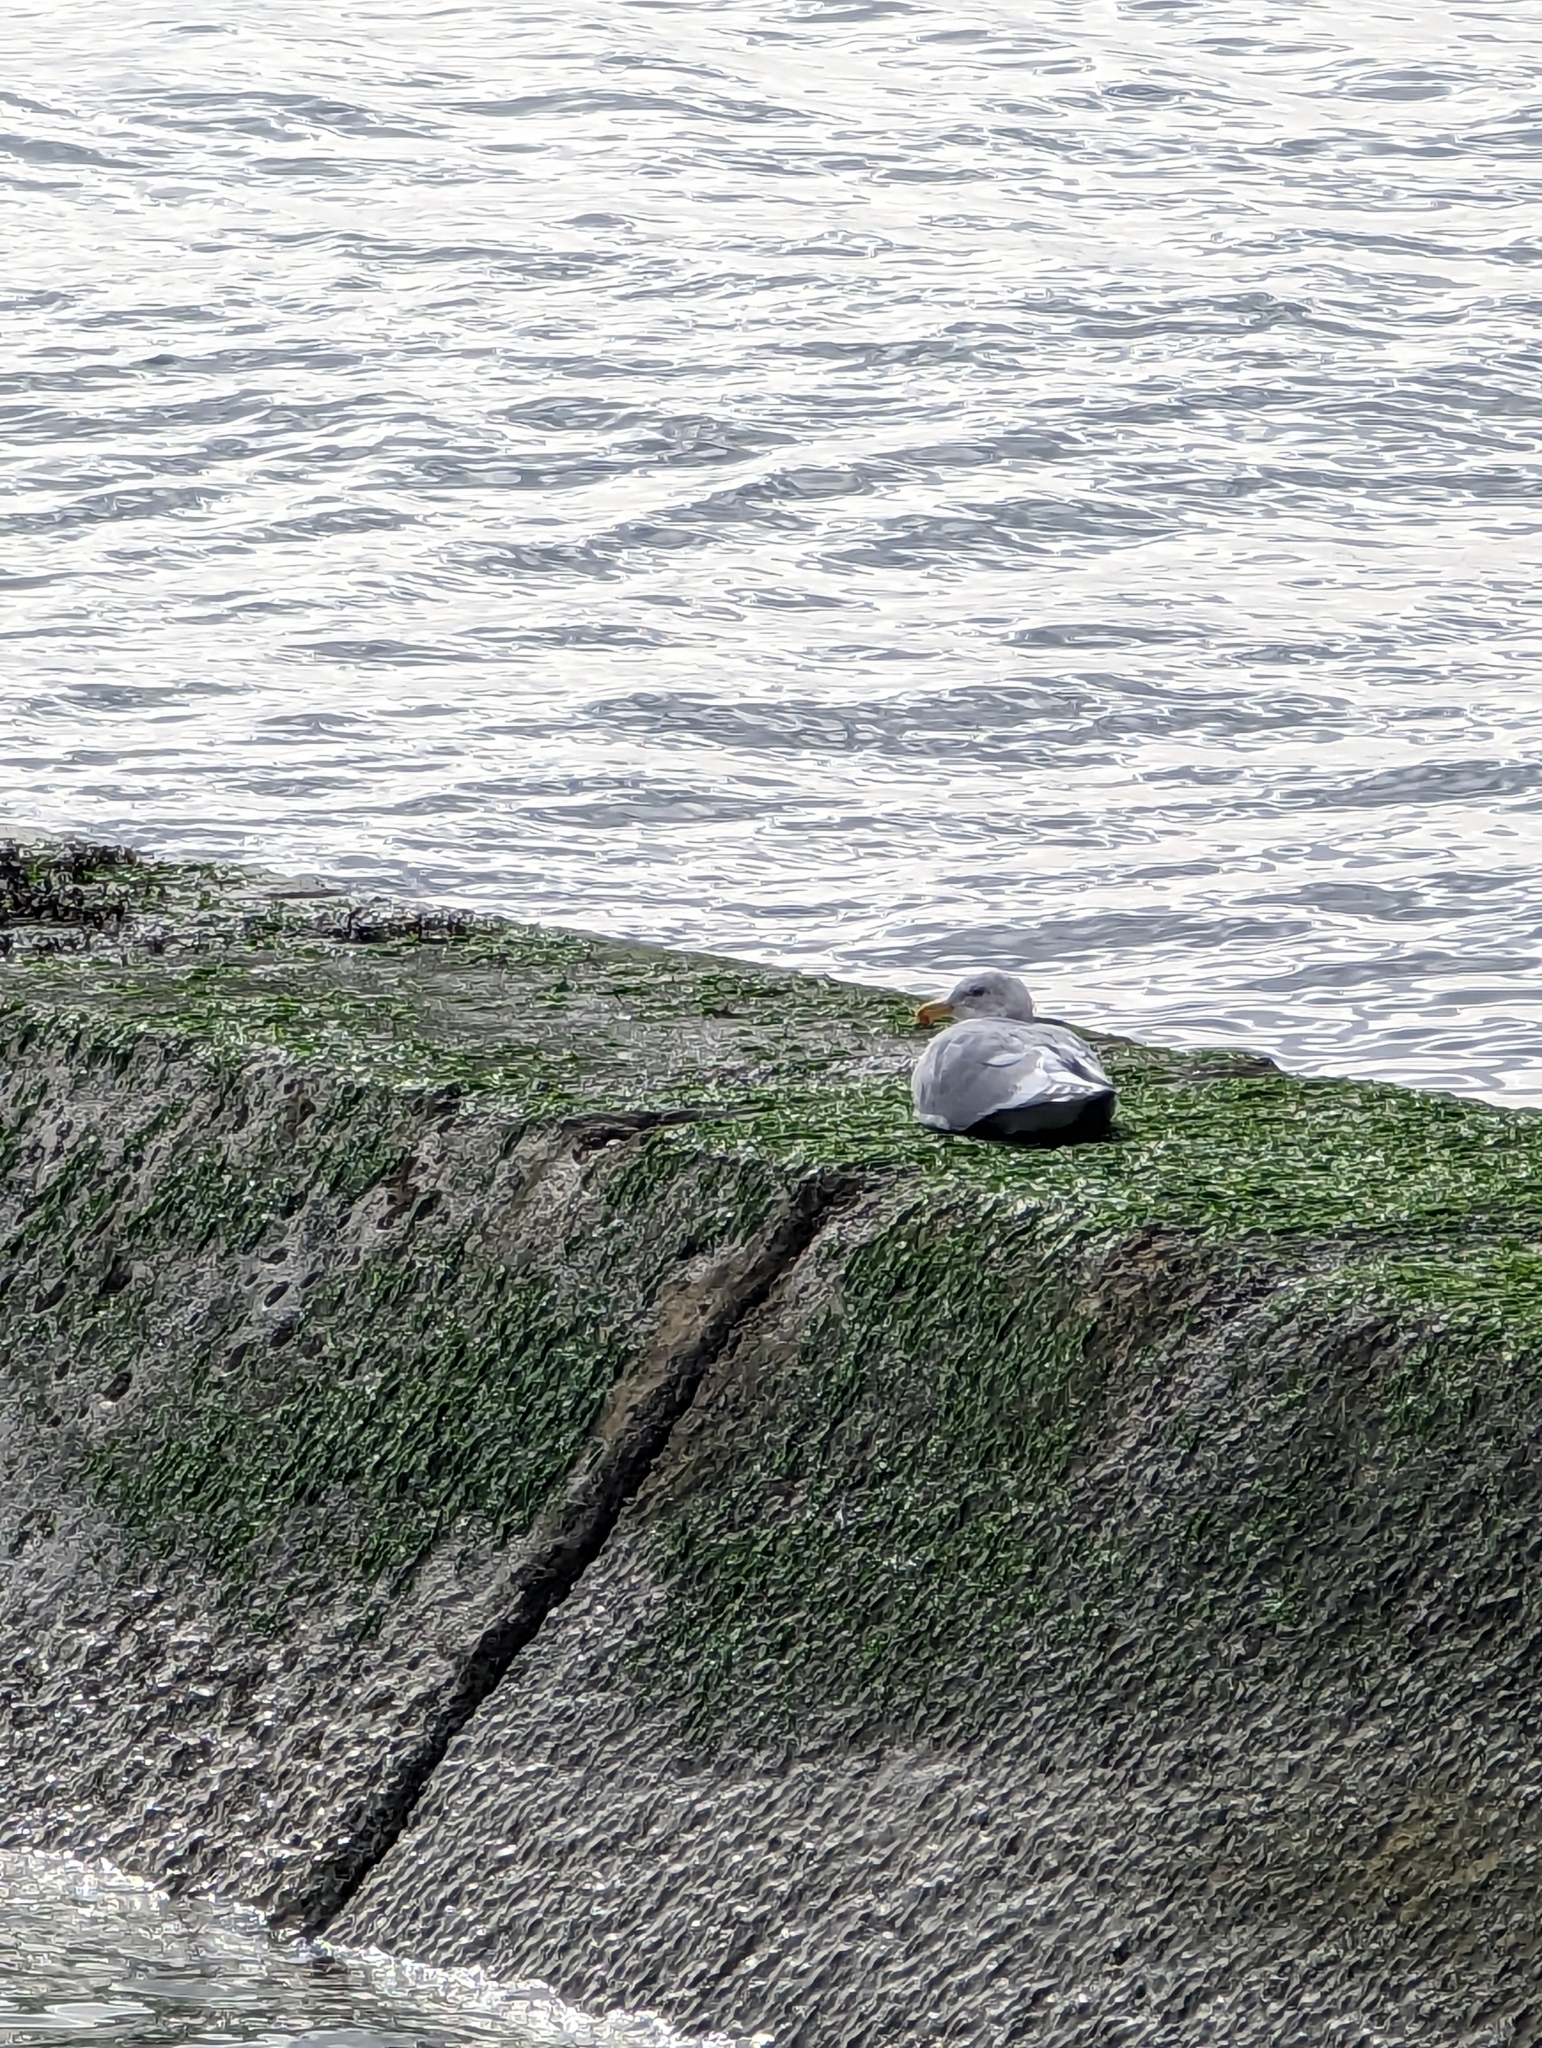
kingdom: Animalia
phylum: Chordata
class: Aves
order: Charadriiformes
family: Laridae
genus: Larus
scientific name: Larus glaucescens
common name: Glaucous-winged gull
